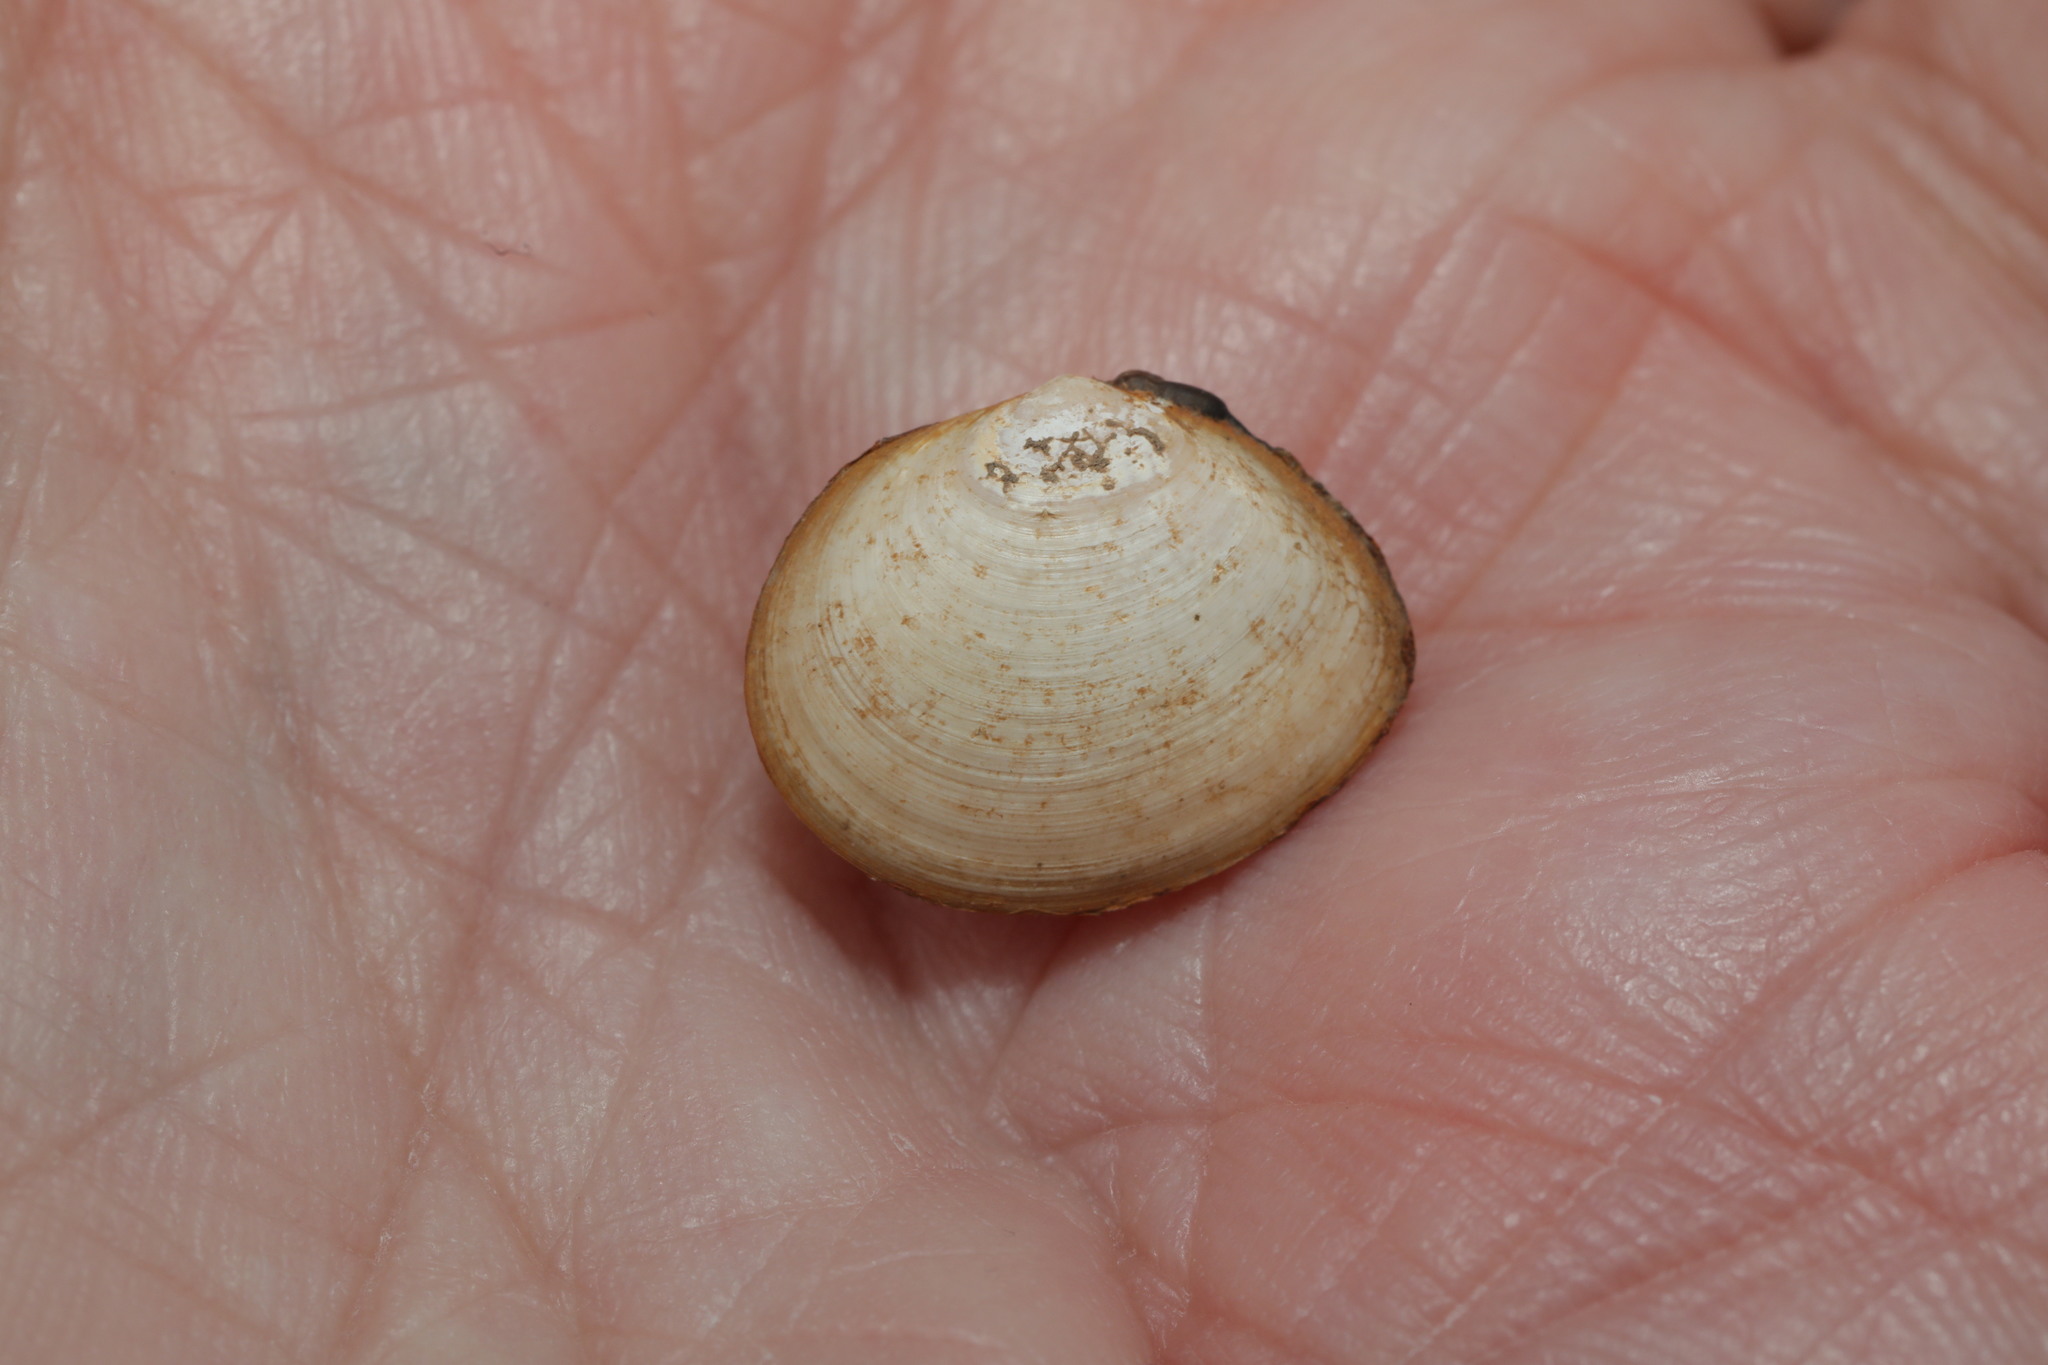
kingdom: Animalia
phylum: Mollusca
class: Bivalvia
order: Cardiida
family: Tellinidae
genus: Macoma
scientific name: Macoma balthica
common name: Baltic tellin
